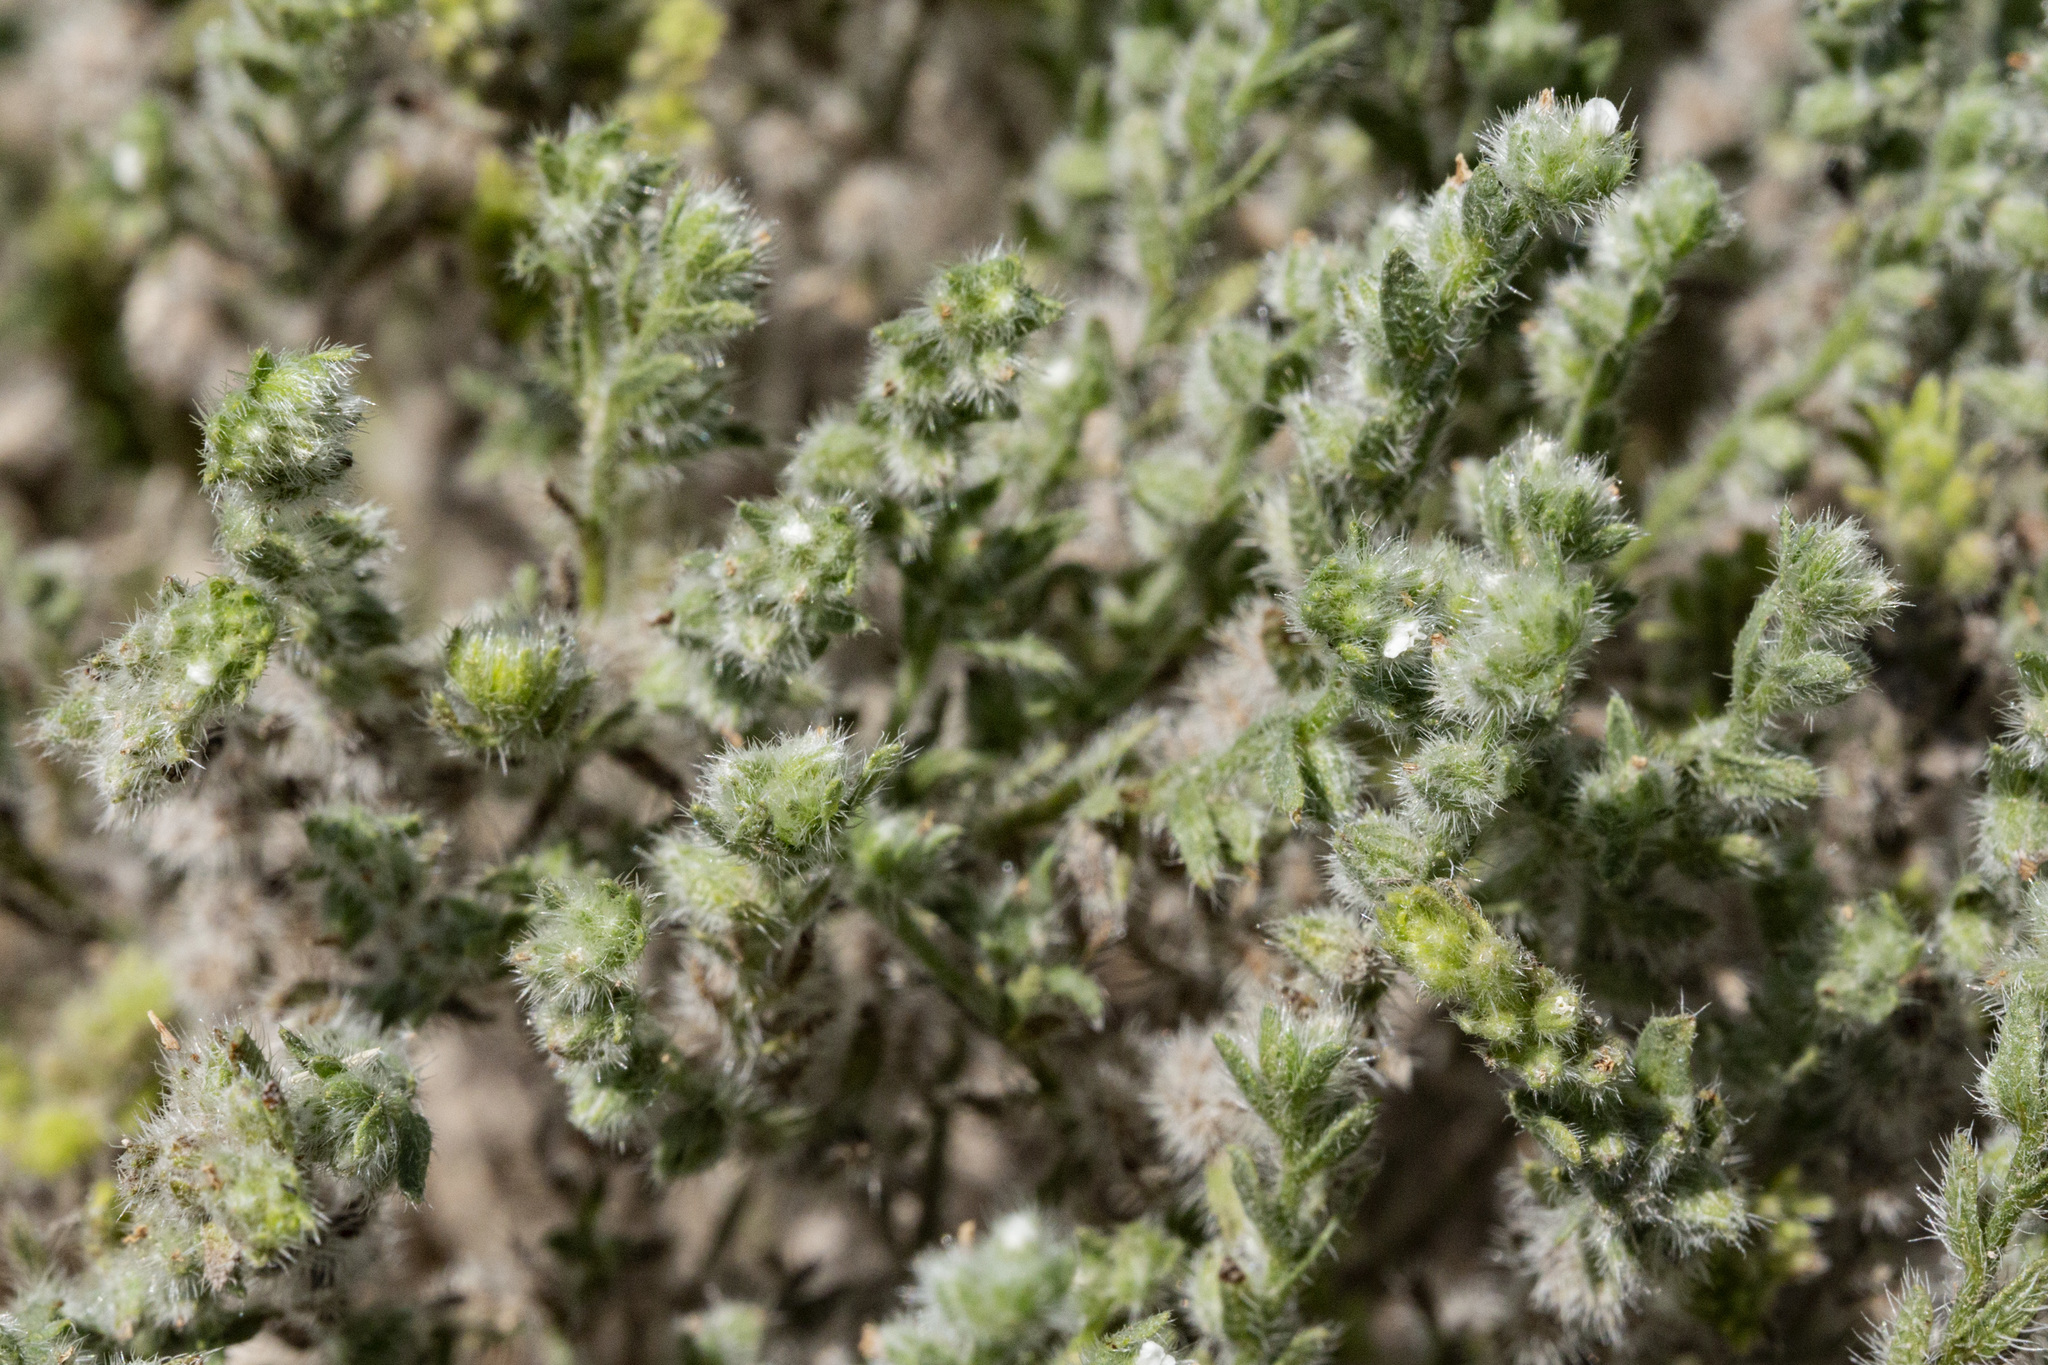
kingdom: Plantae
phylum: Tracheophyta
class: Magnoliopsida
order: Boraginales
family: Boraginaceae
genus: Johnstonella
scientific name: Johnstonella albida
